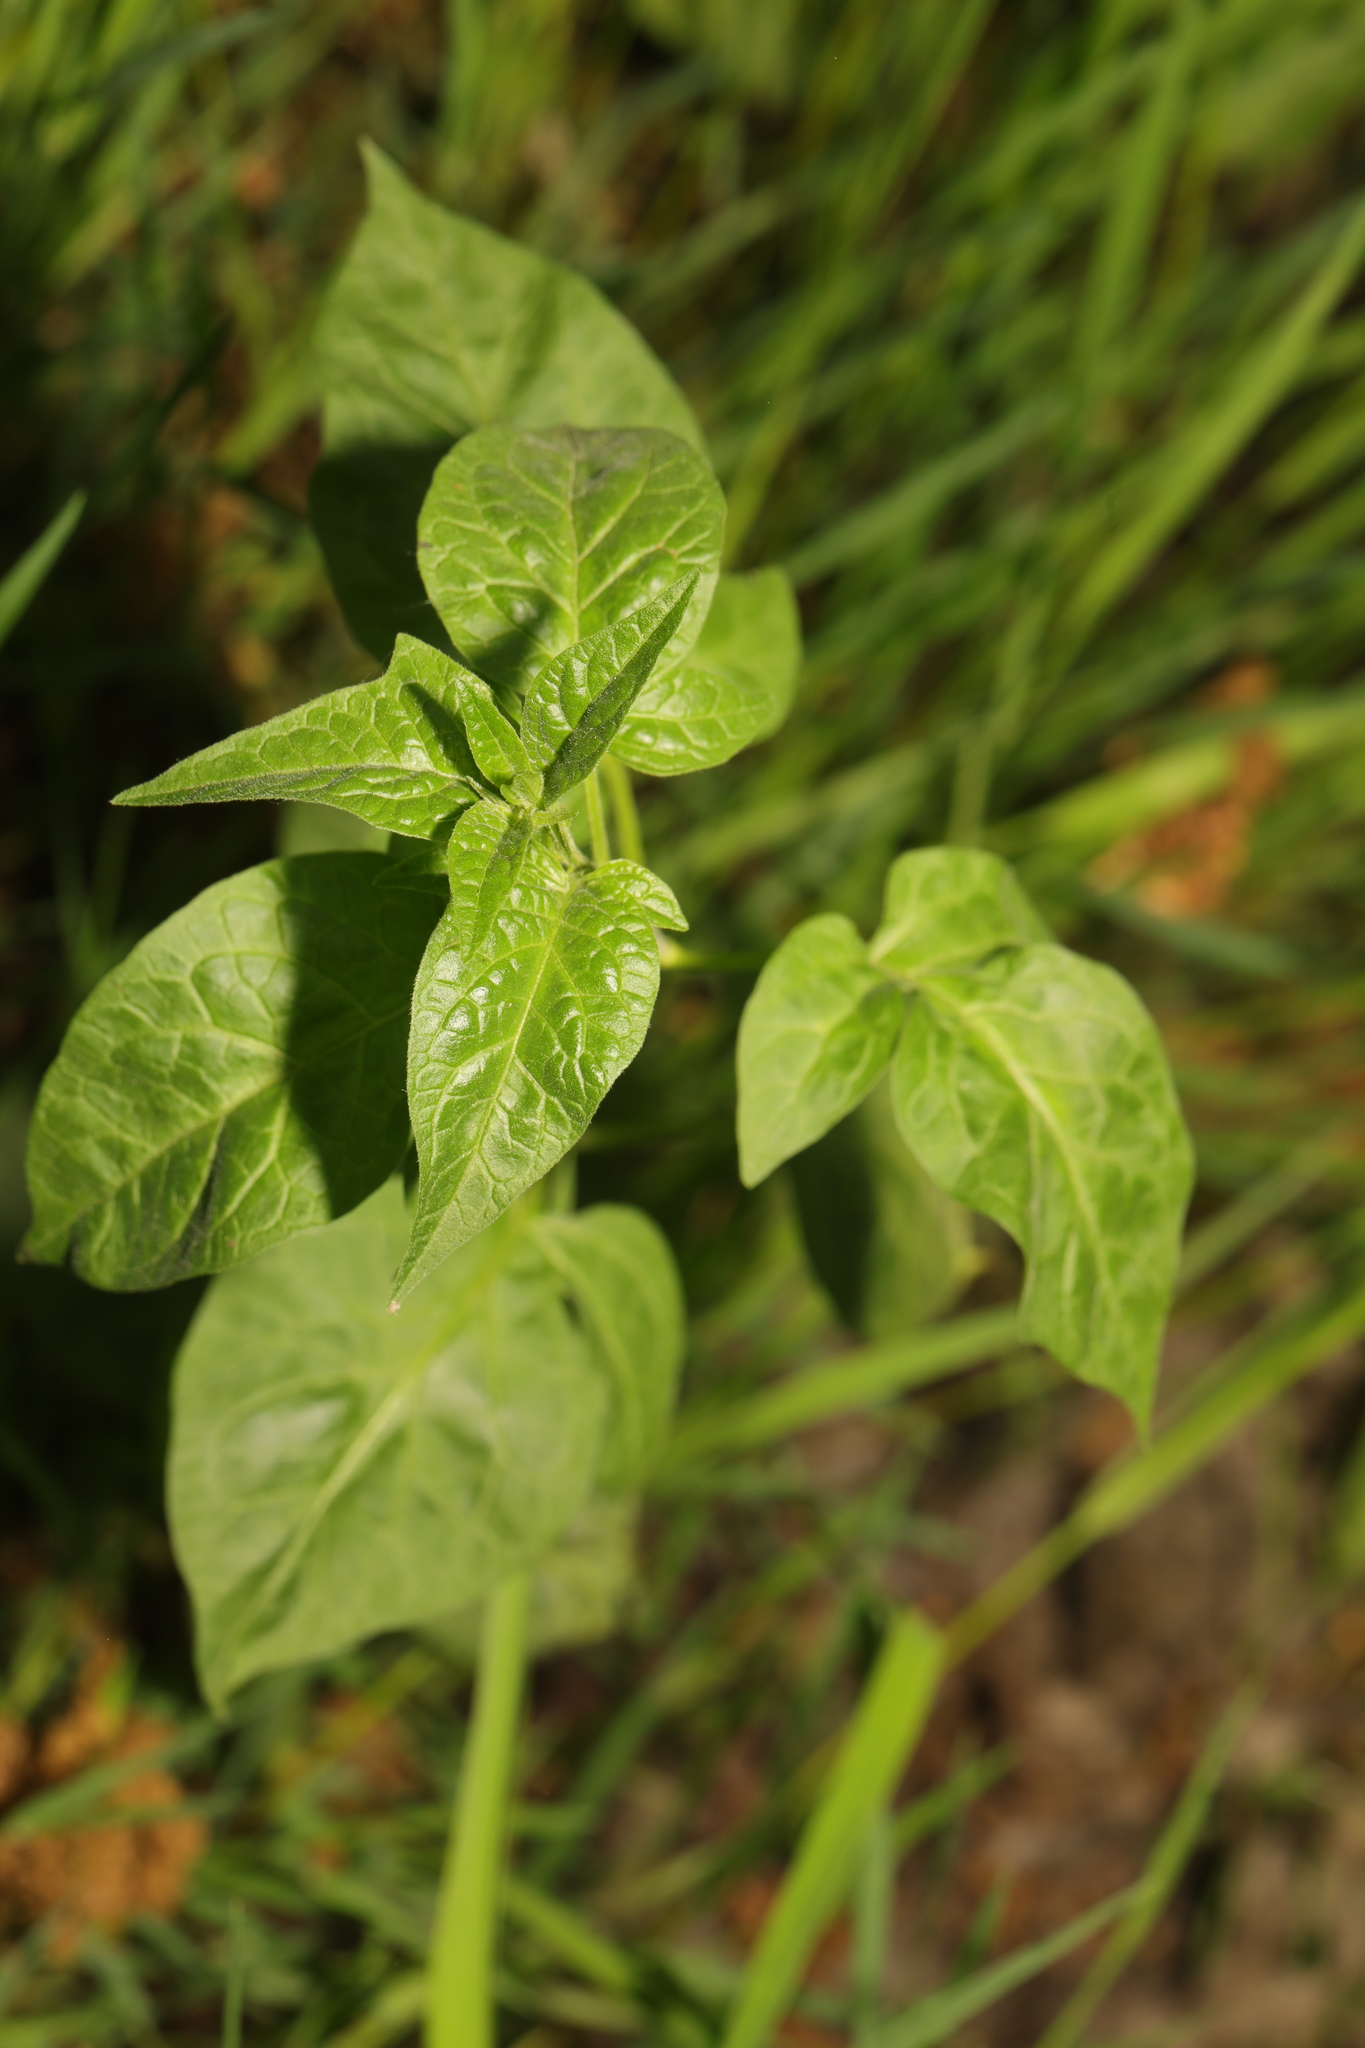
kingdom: Plantae
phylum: Tracheophyta
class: Magnoliopsida
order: Solanales
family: Solanaceae
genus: Solanum
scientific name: Solanum dulcamara
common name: Climbing nightshade
